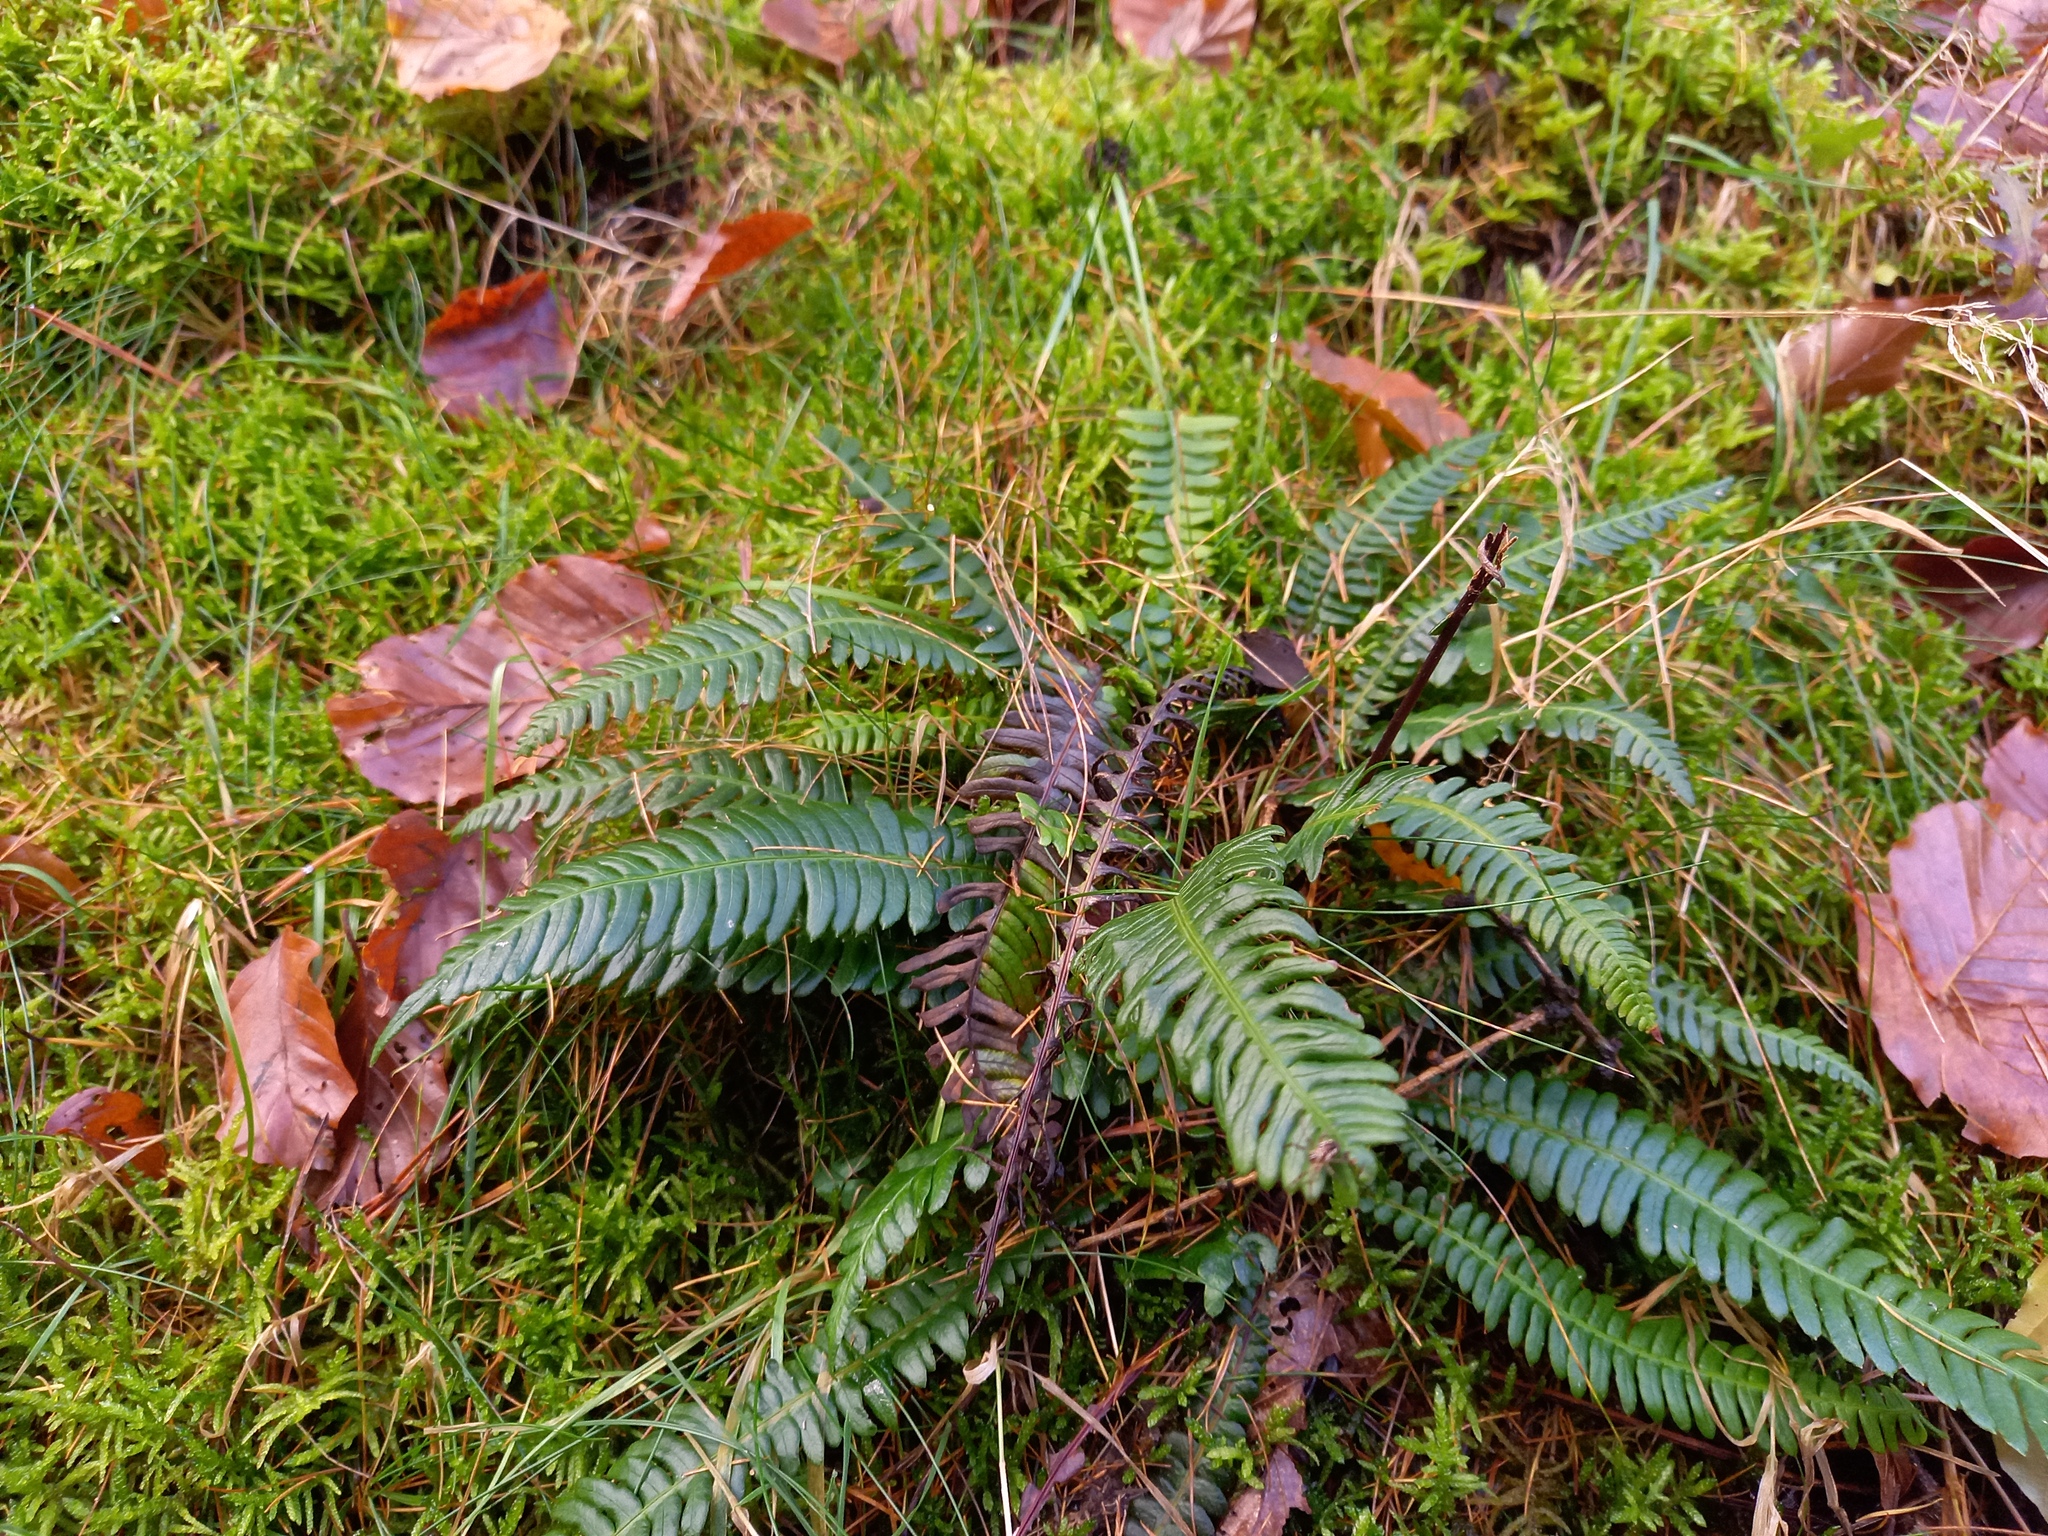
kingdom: Plantae
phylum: Tracheophyta
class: Polypodiopsida
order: Polypodiales
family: Blechnaceae
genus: Struthiopteris
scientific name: Struthiopteris spicant
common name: Deer fern
